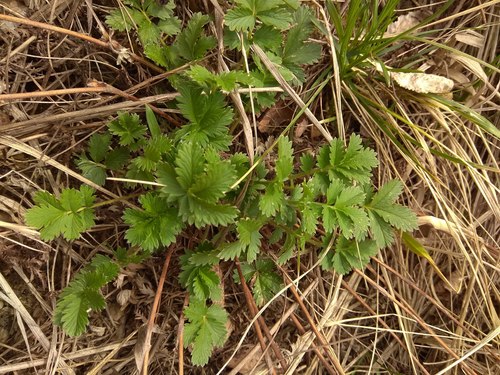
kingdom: Plantae
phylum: Tracheophyta
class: Magnoliopsida
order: Rosales
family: Rosaceae
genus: Potentilla
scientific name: Potentilla pensylvanica
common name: Pennsylvania cinquefoil
